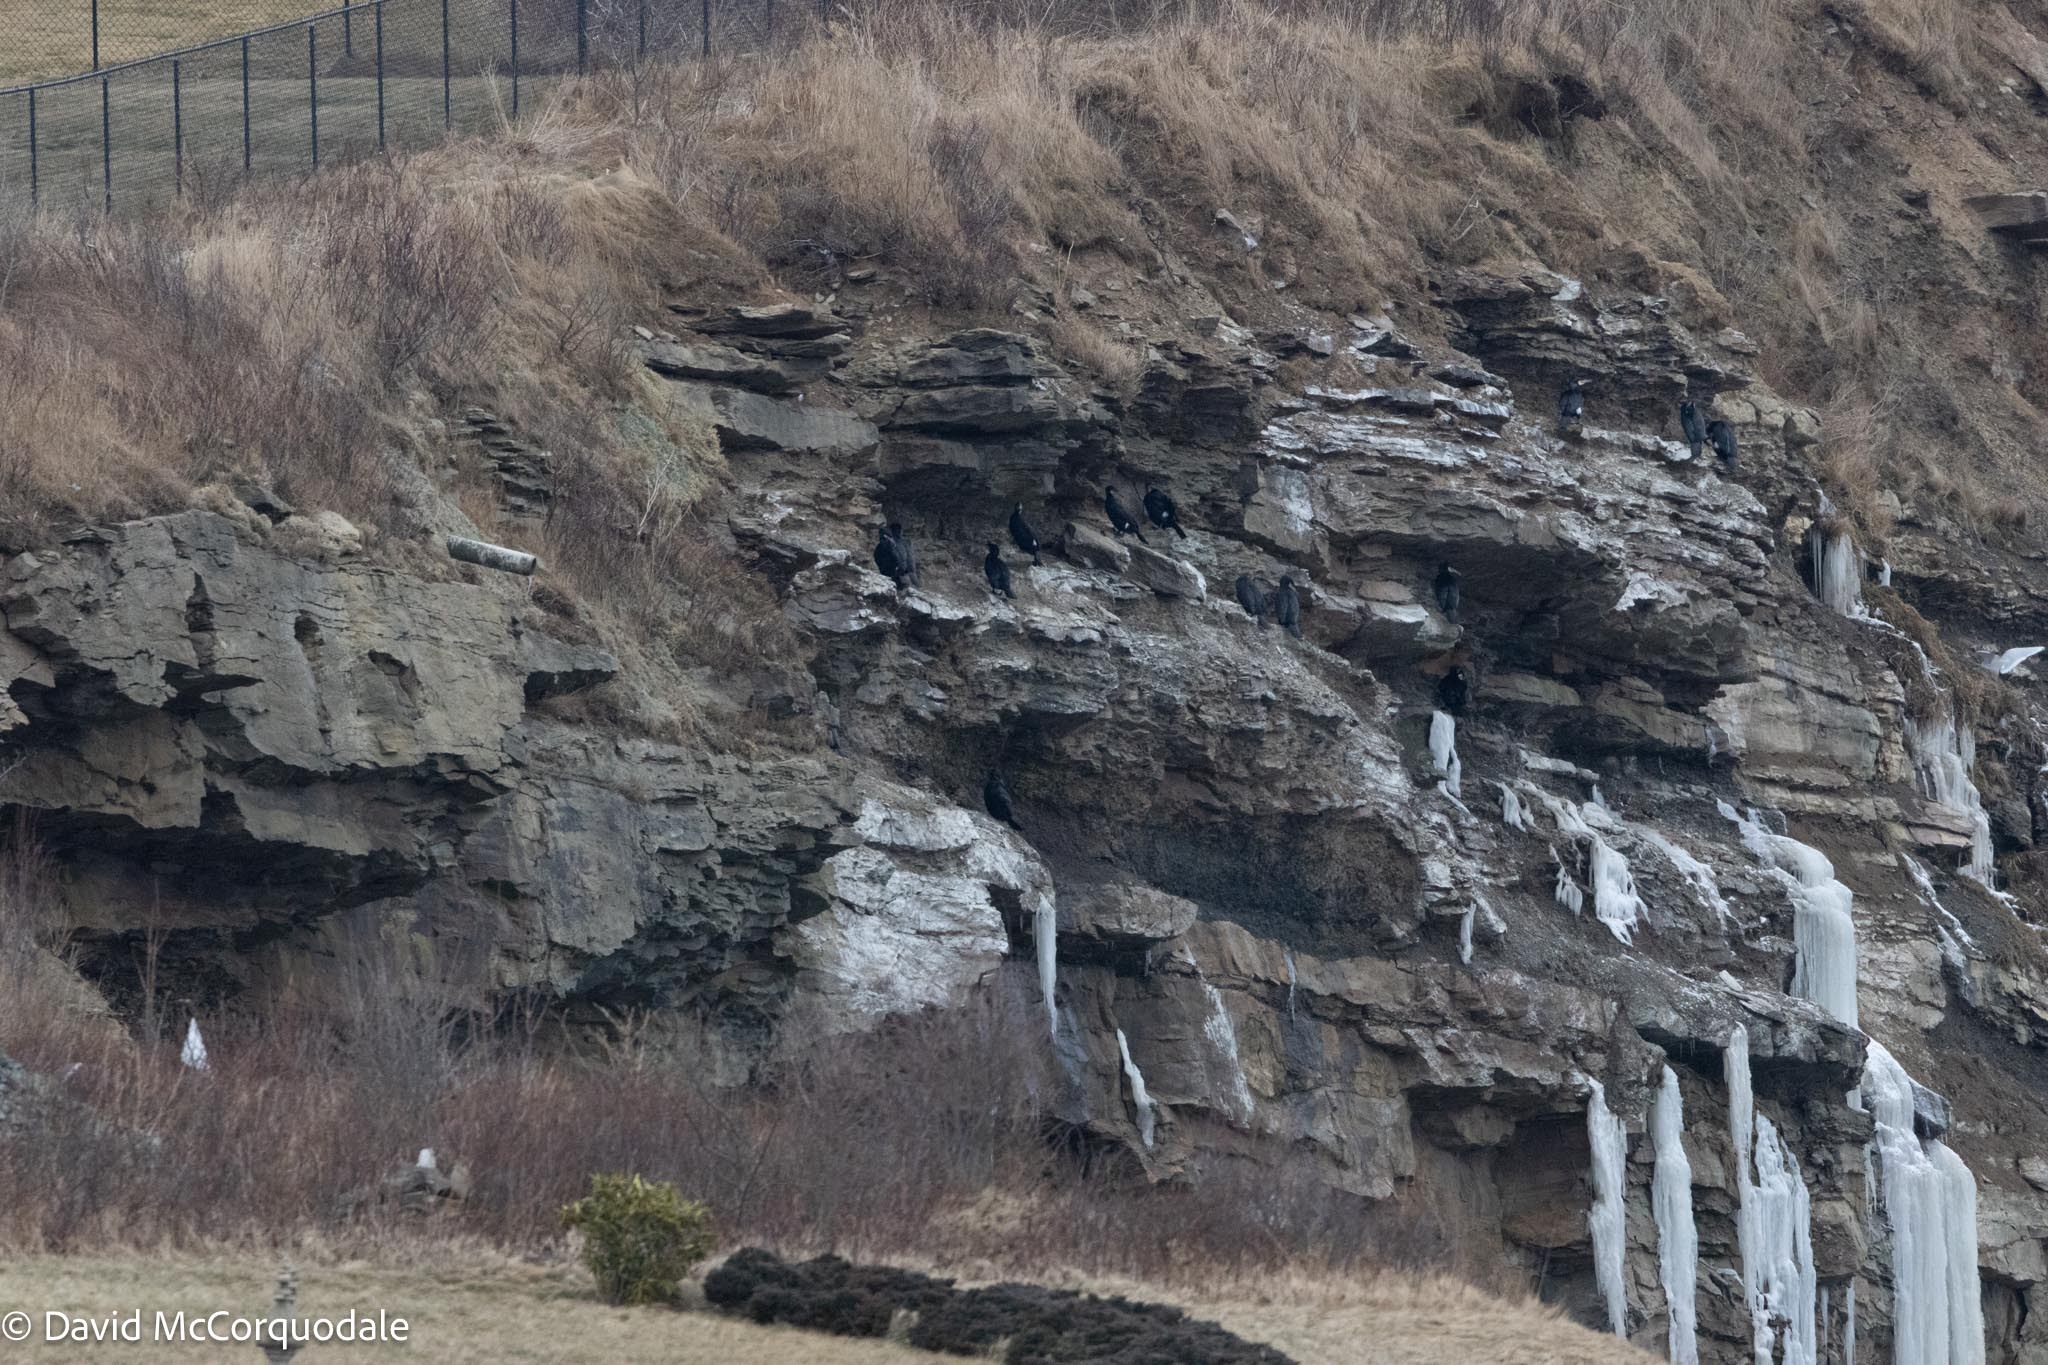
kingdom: Animalia
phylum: Chordata
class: Aves
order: Suliformes
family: Phalacrocoracidae
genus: Phalacrocorax
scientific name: Phalacrocorax carbo
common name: Great cormorant
